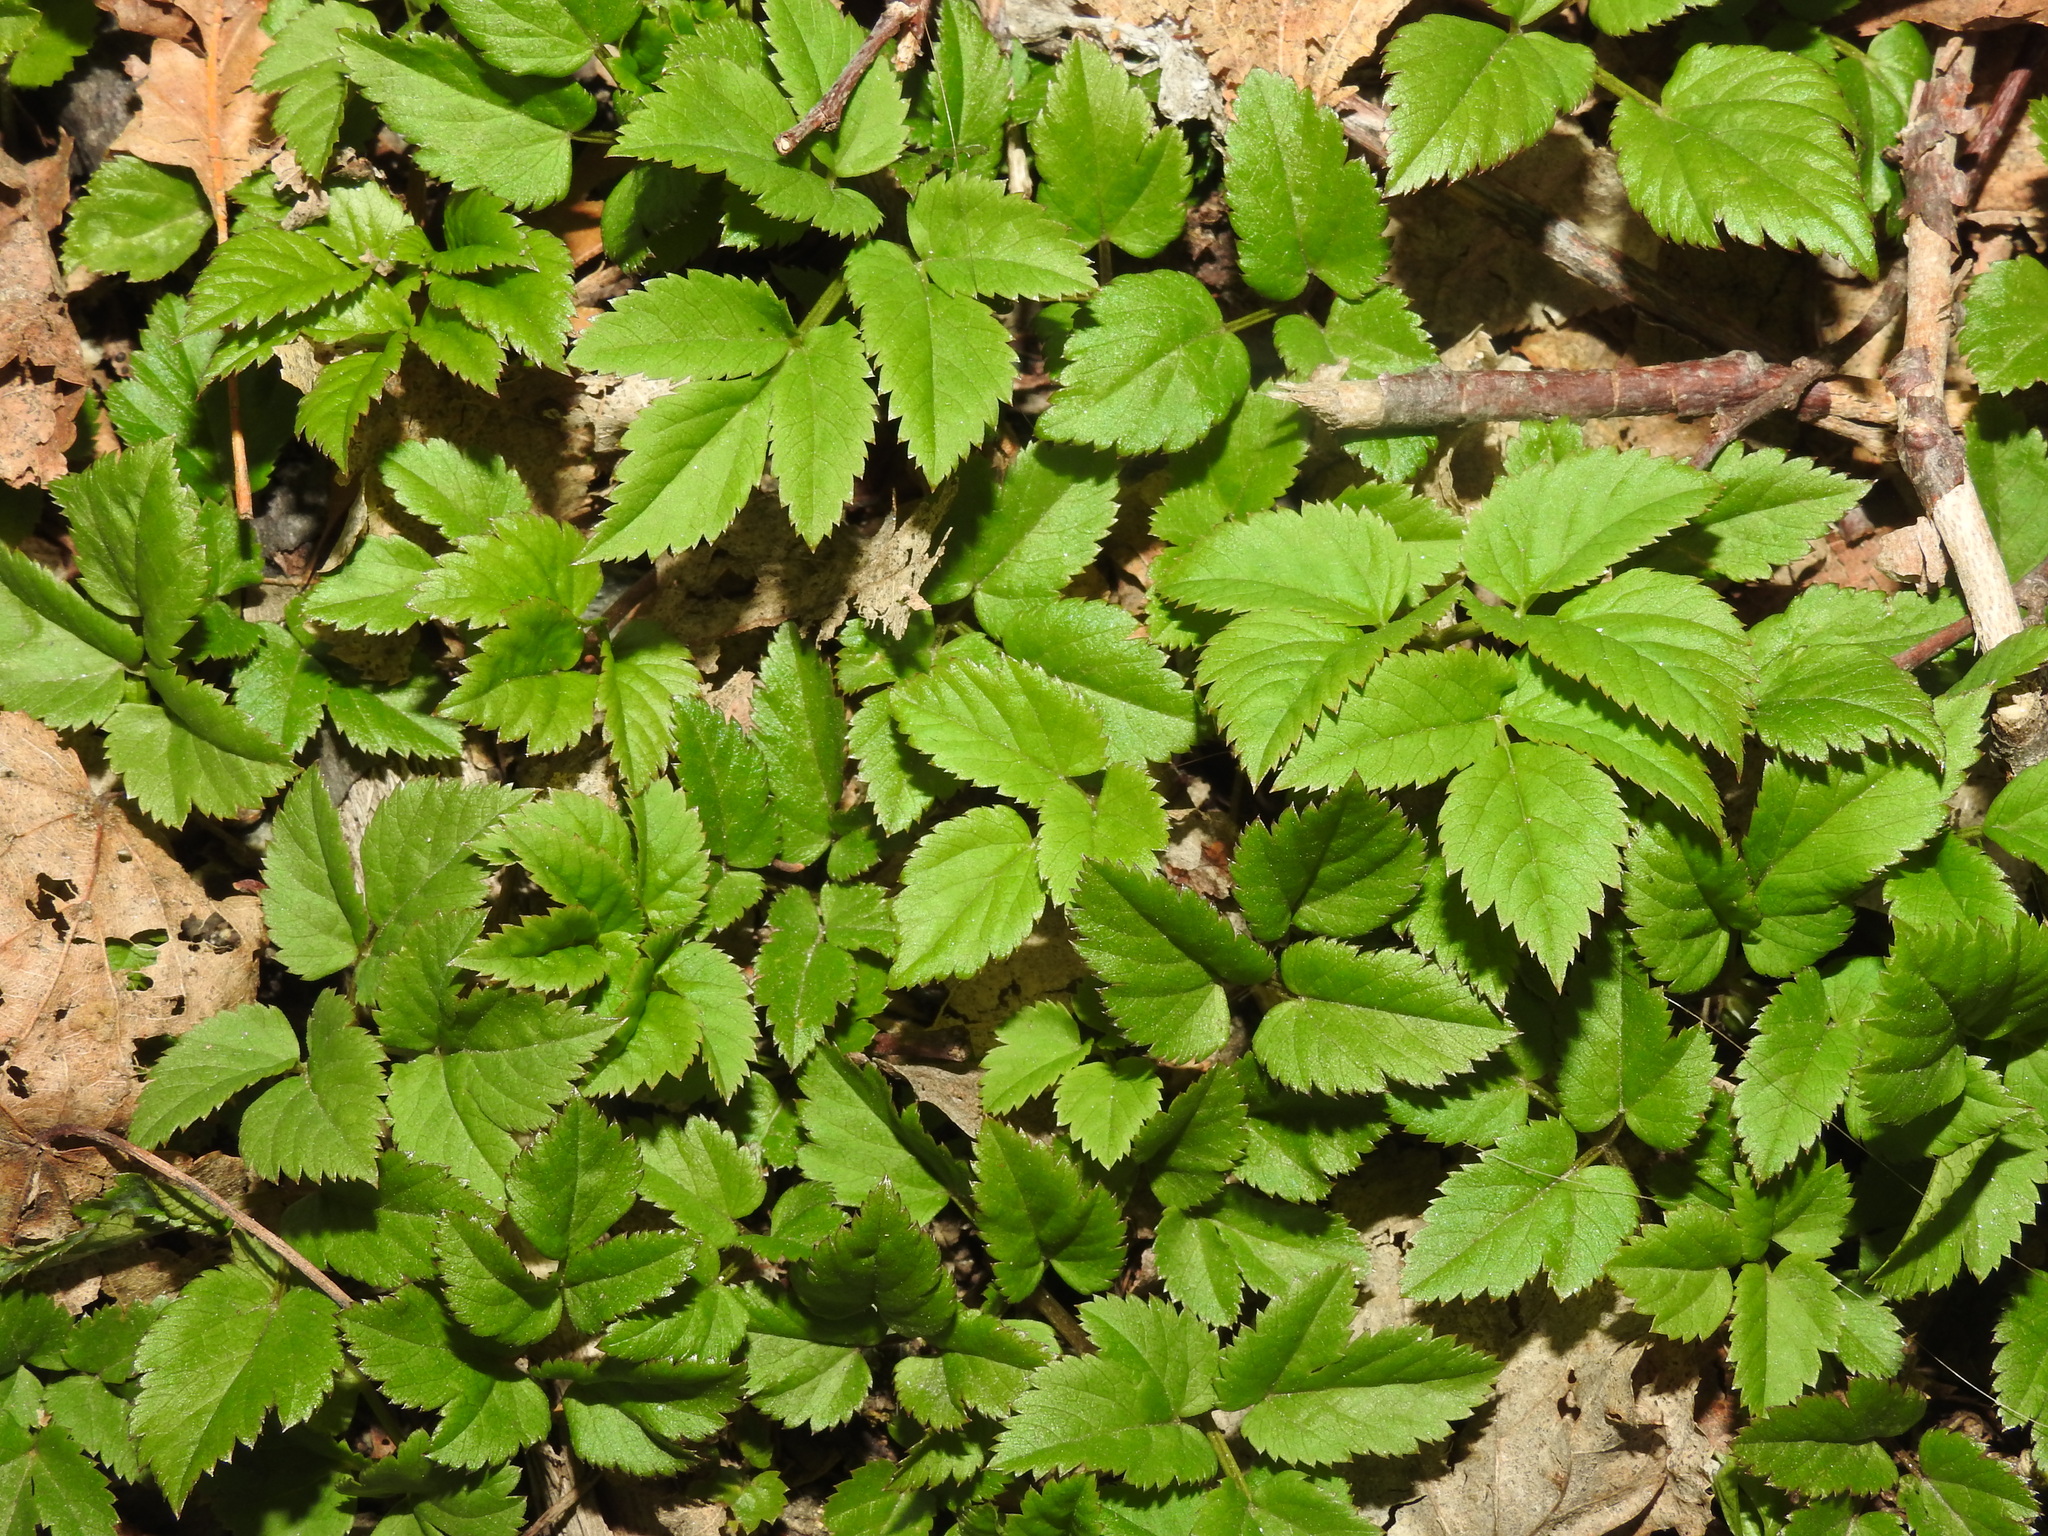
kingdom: Plantae
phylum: Tracheophyta
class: Magnoliopsida
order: Apiales
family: Apiaceae
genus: Aegopodium
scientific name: Aegopodium podagraria
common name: Ground-elder
